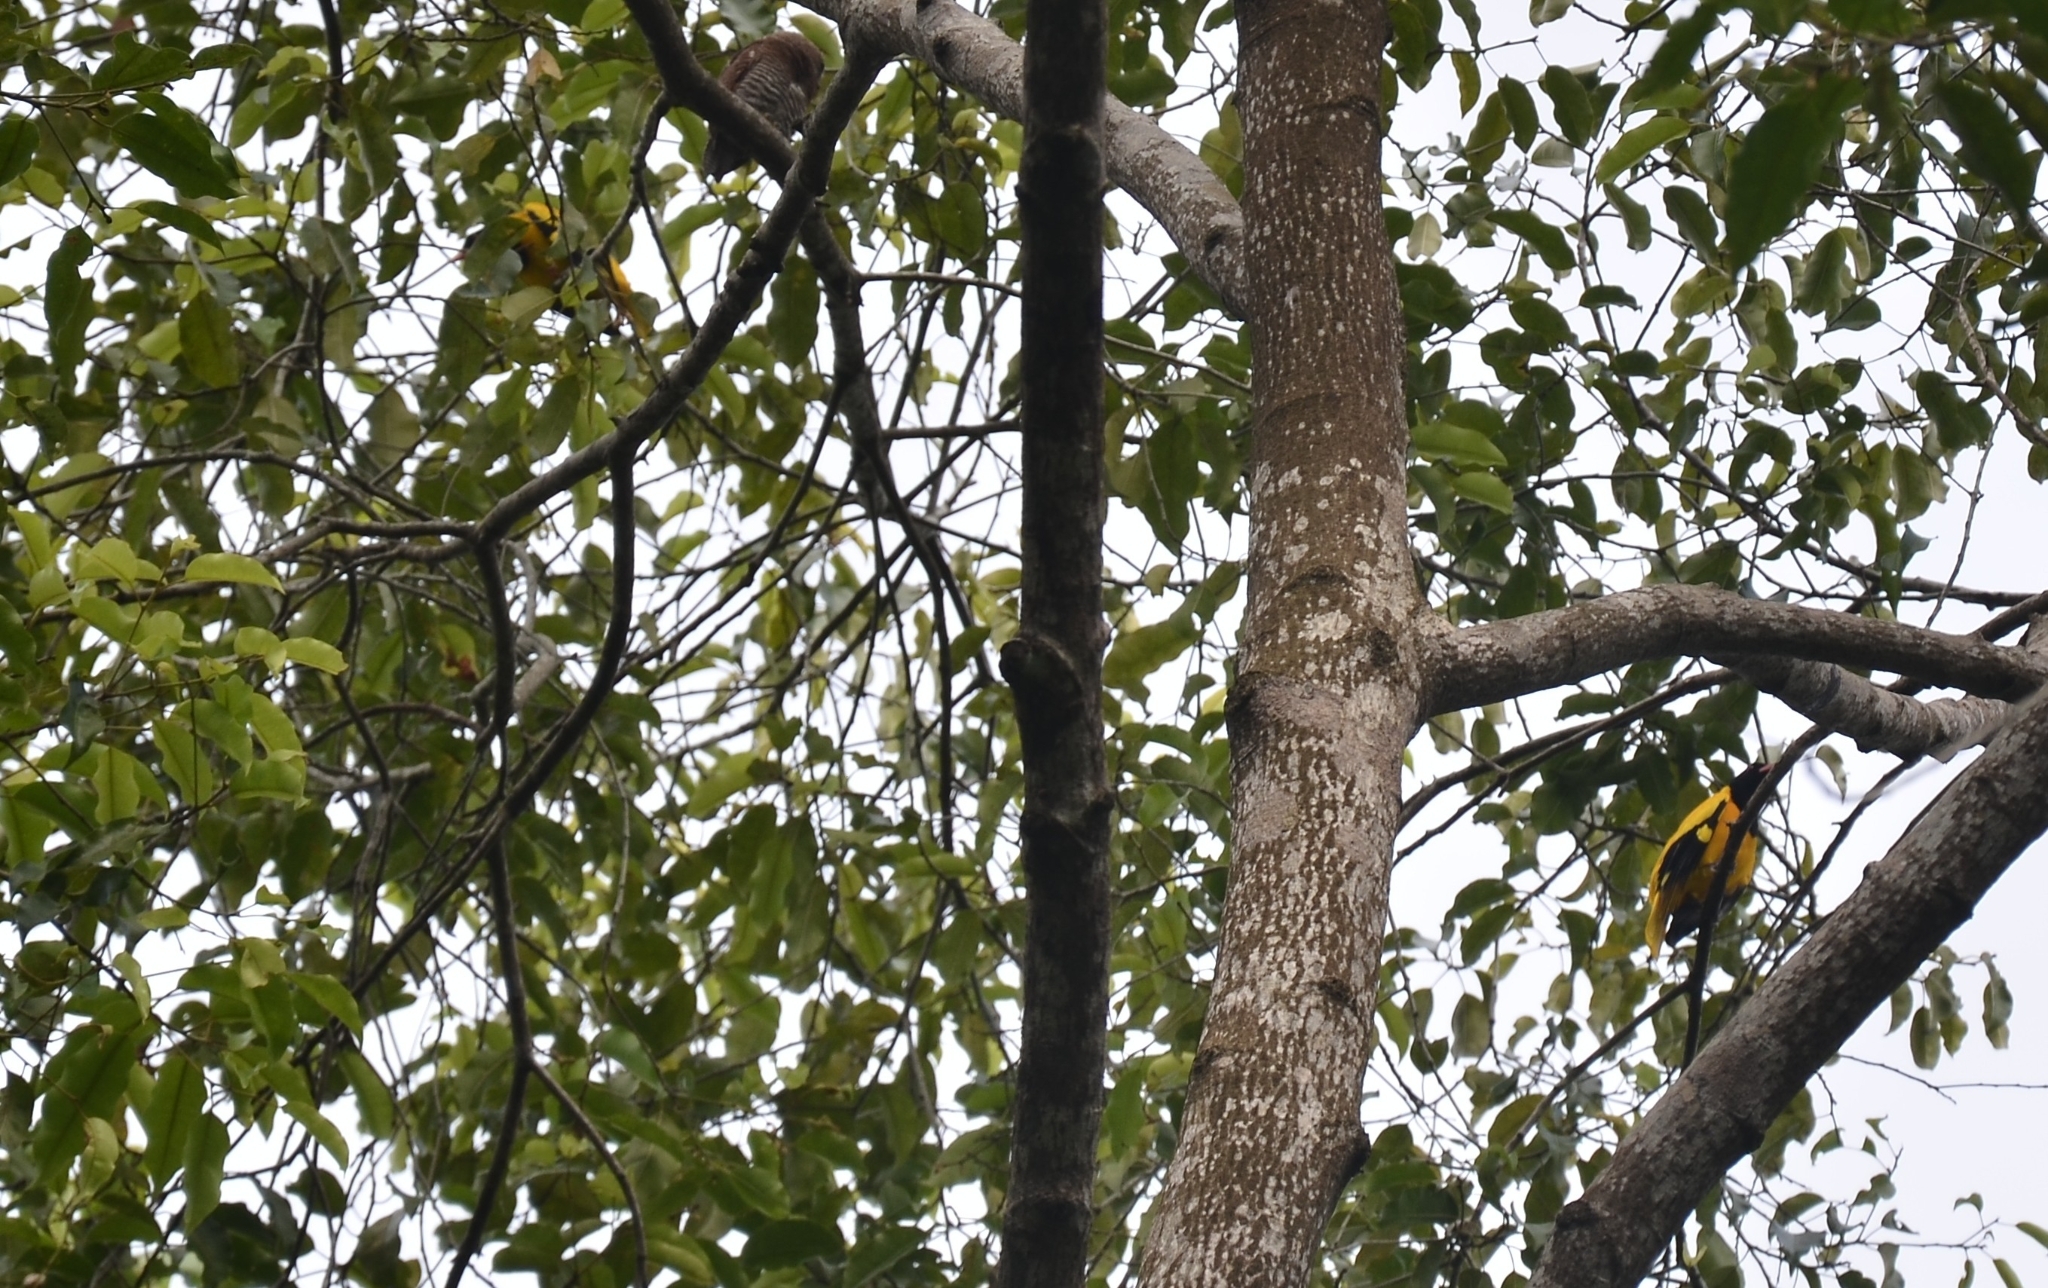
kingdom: Animalia
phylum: Chordata
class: Aves
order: Passeriformes
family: Oriolidae
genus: Oriolus
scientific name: Oriolus xanthornus
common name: Black-hooded oriole
